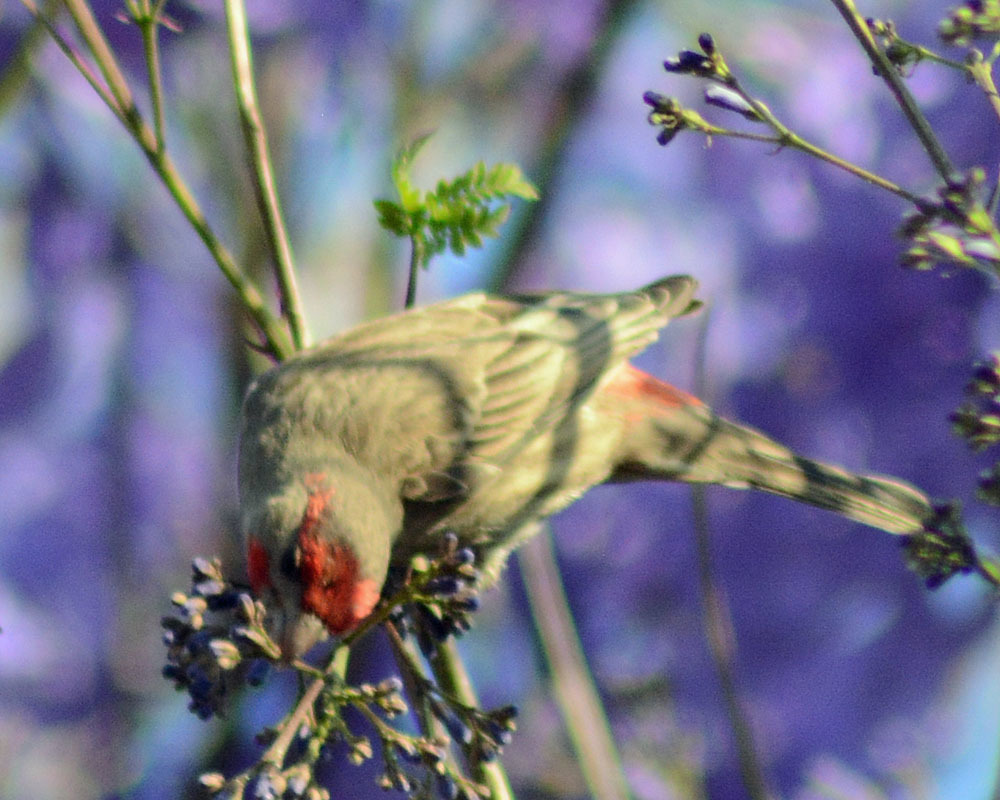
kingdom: Animalia
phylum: Chordata
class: Aves
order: Passeriformes
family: Fringillidae
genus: Haemorhous
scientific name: Haemorhous mexicanus
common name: House finch
